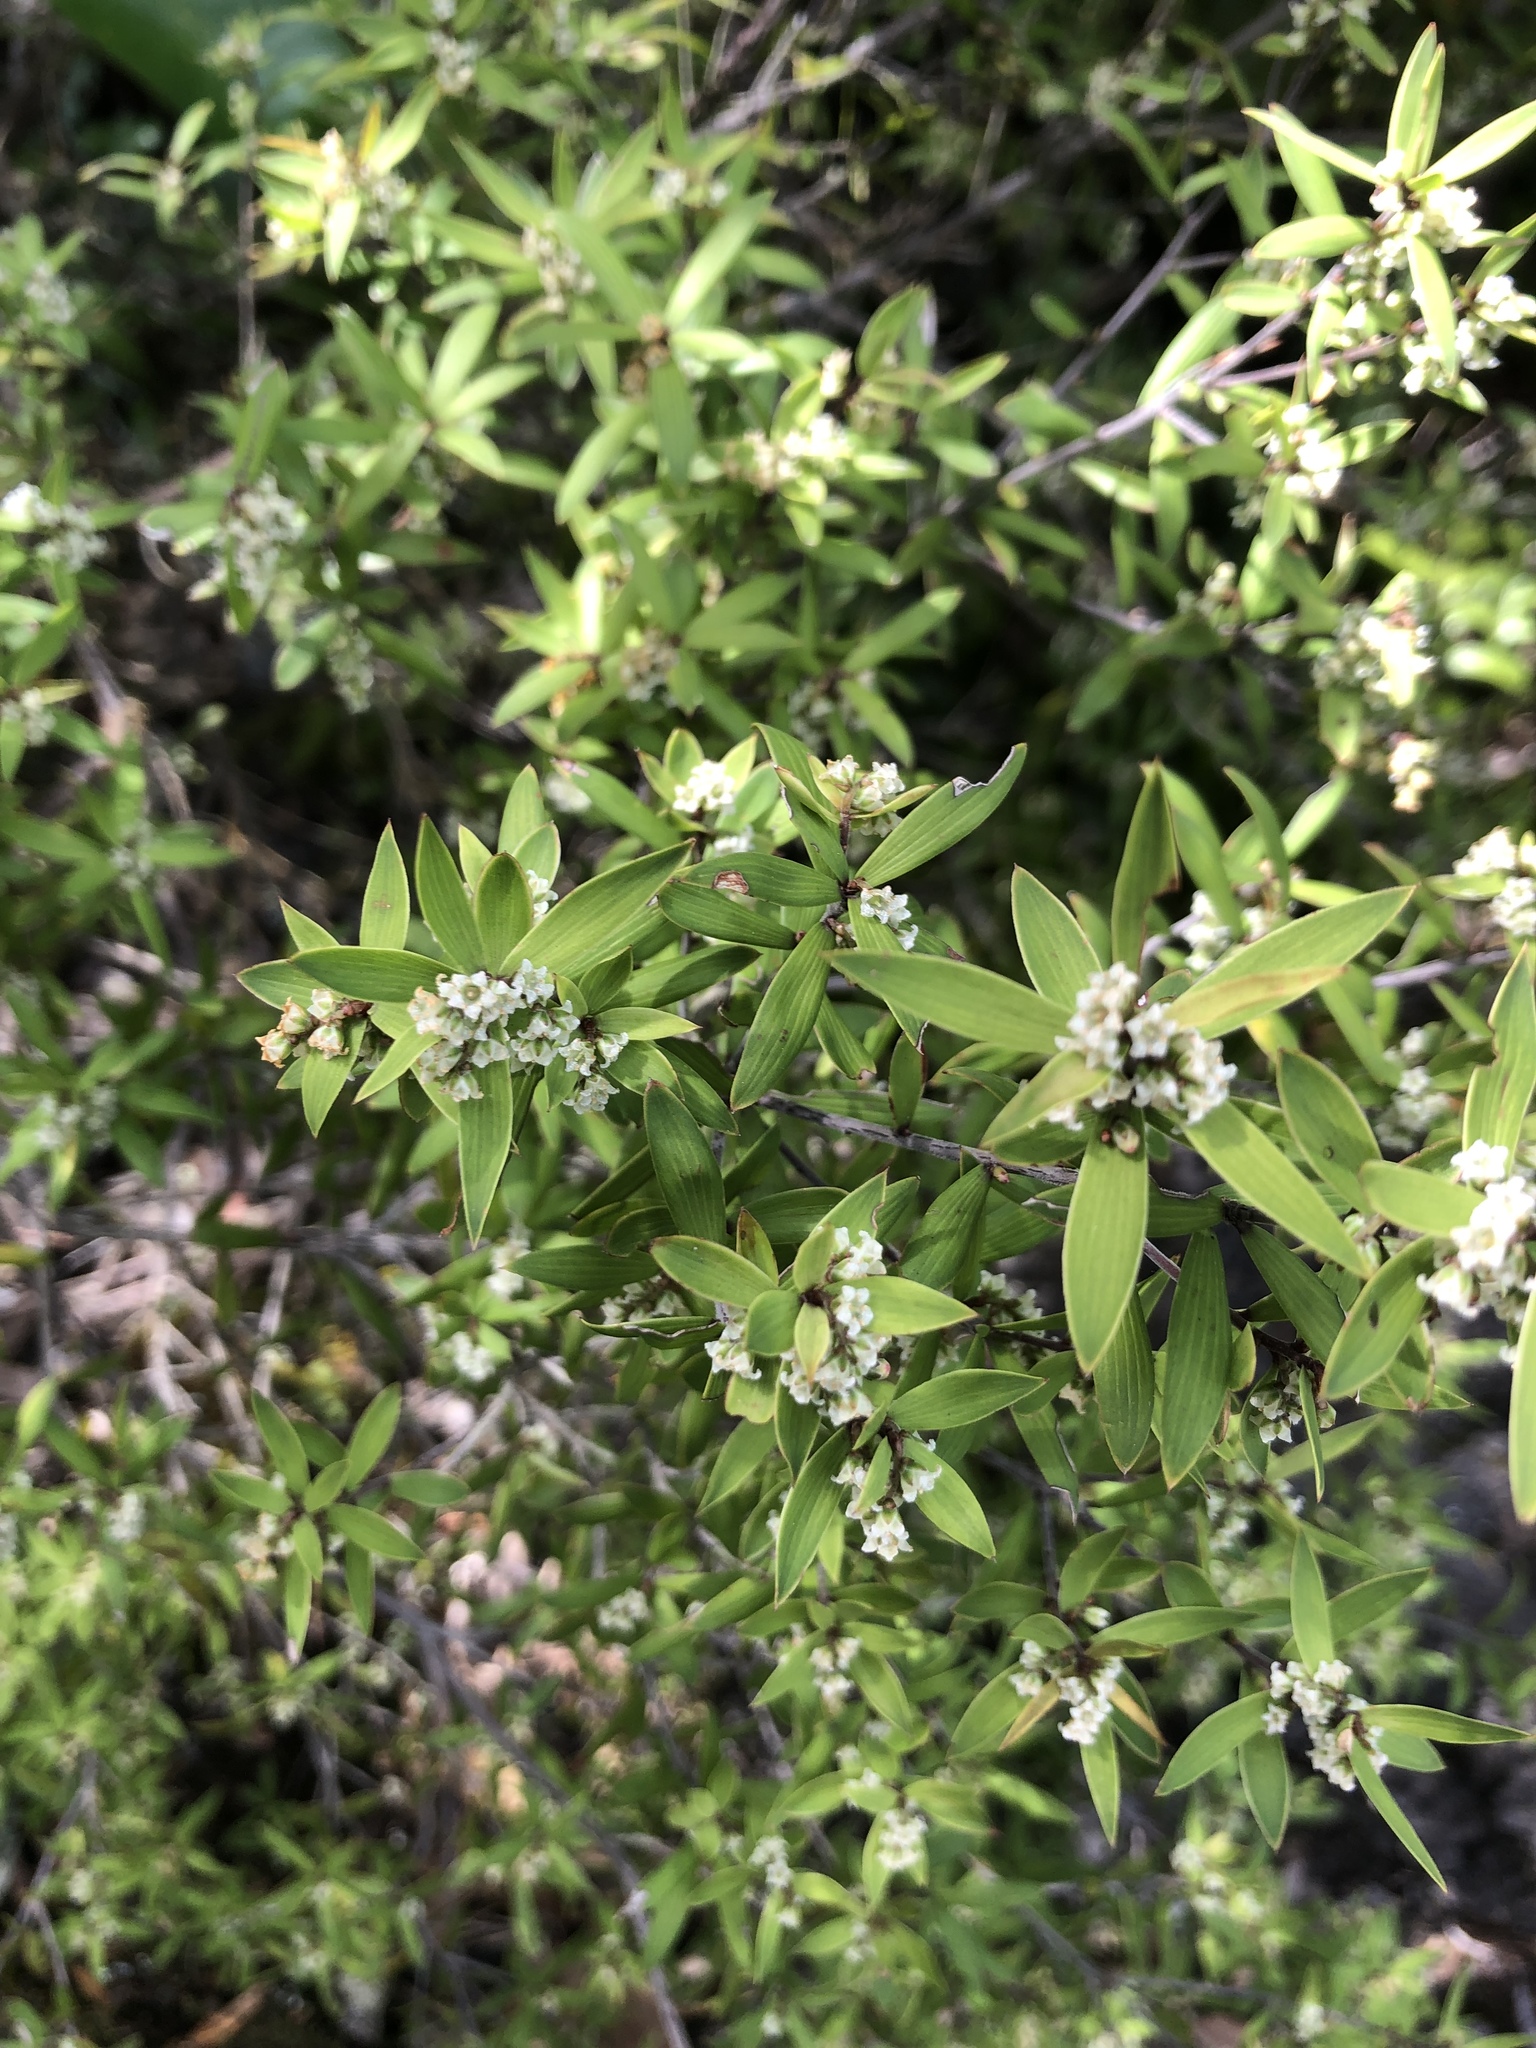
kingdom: Plantae
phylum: Tracheophyta
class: Magnoliopsida
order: Ericales
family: Ericaceae
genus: Leucopogon
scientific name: Leucopogon fasciculatus
